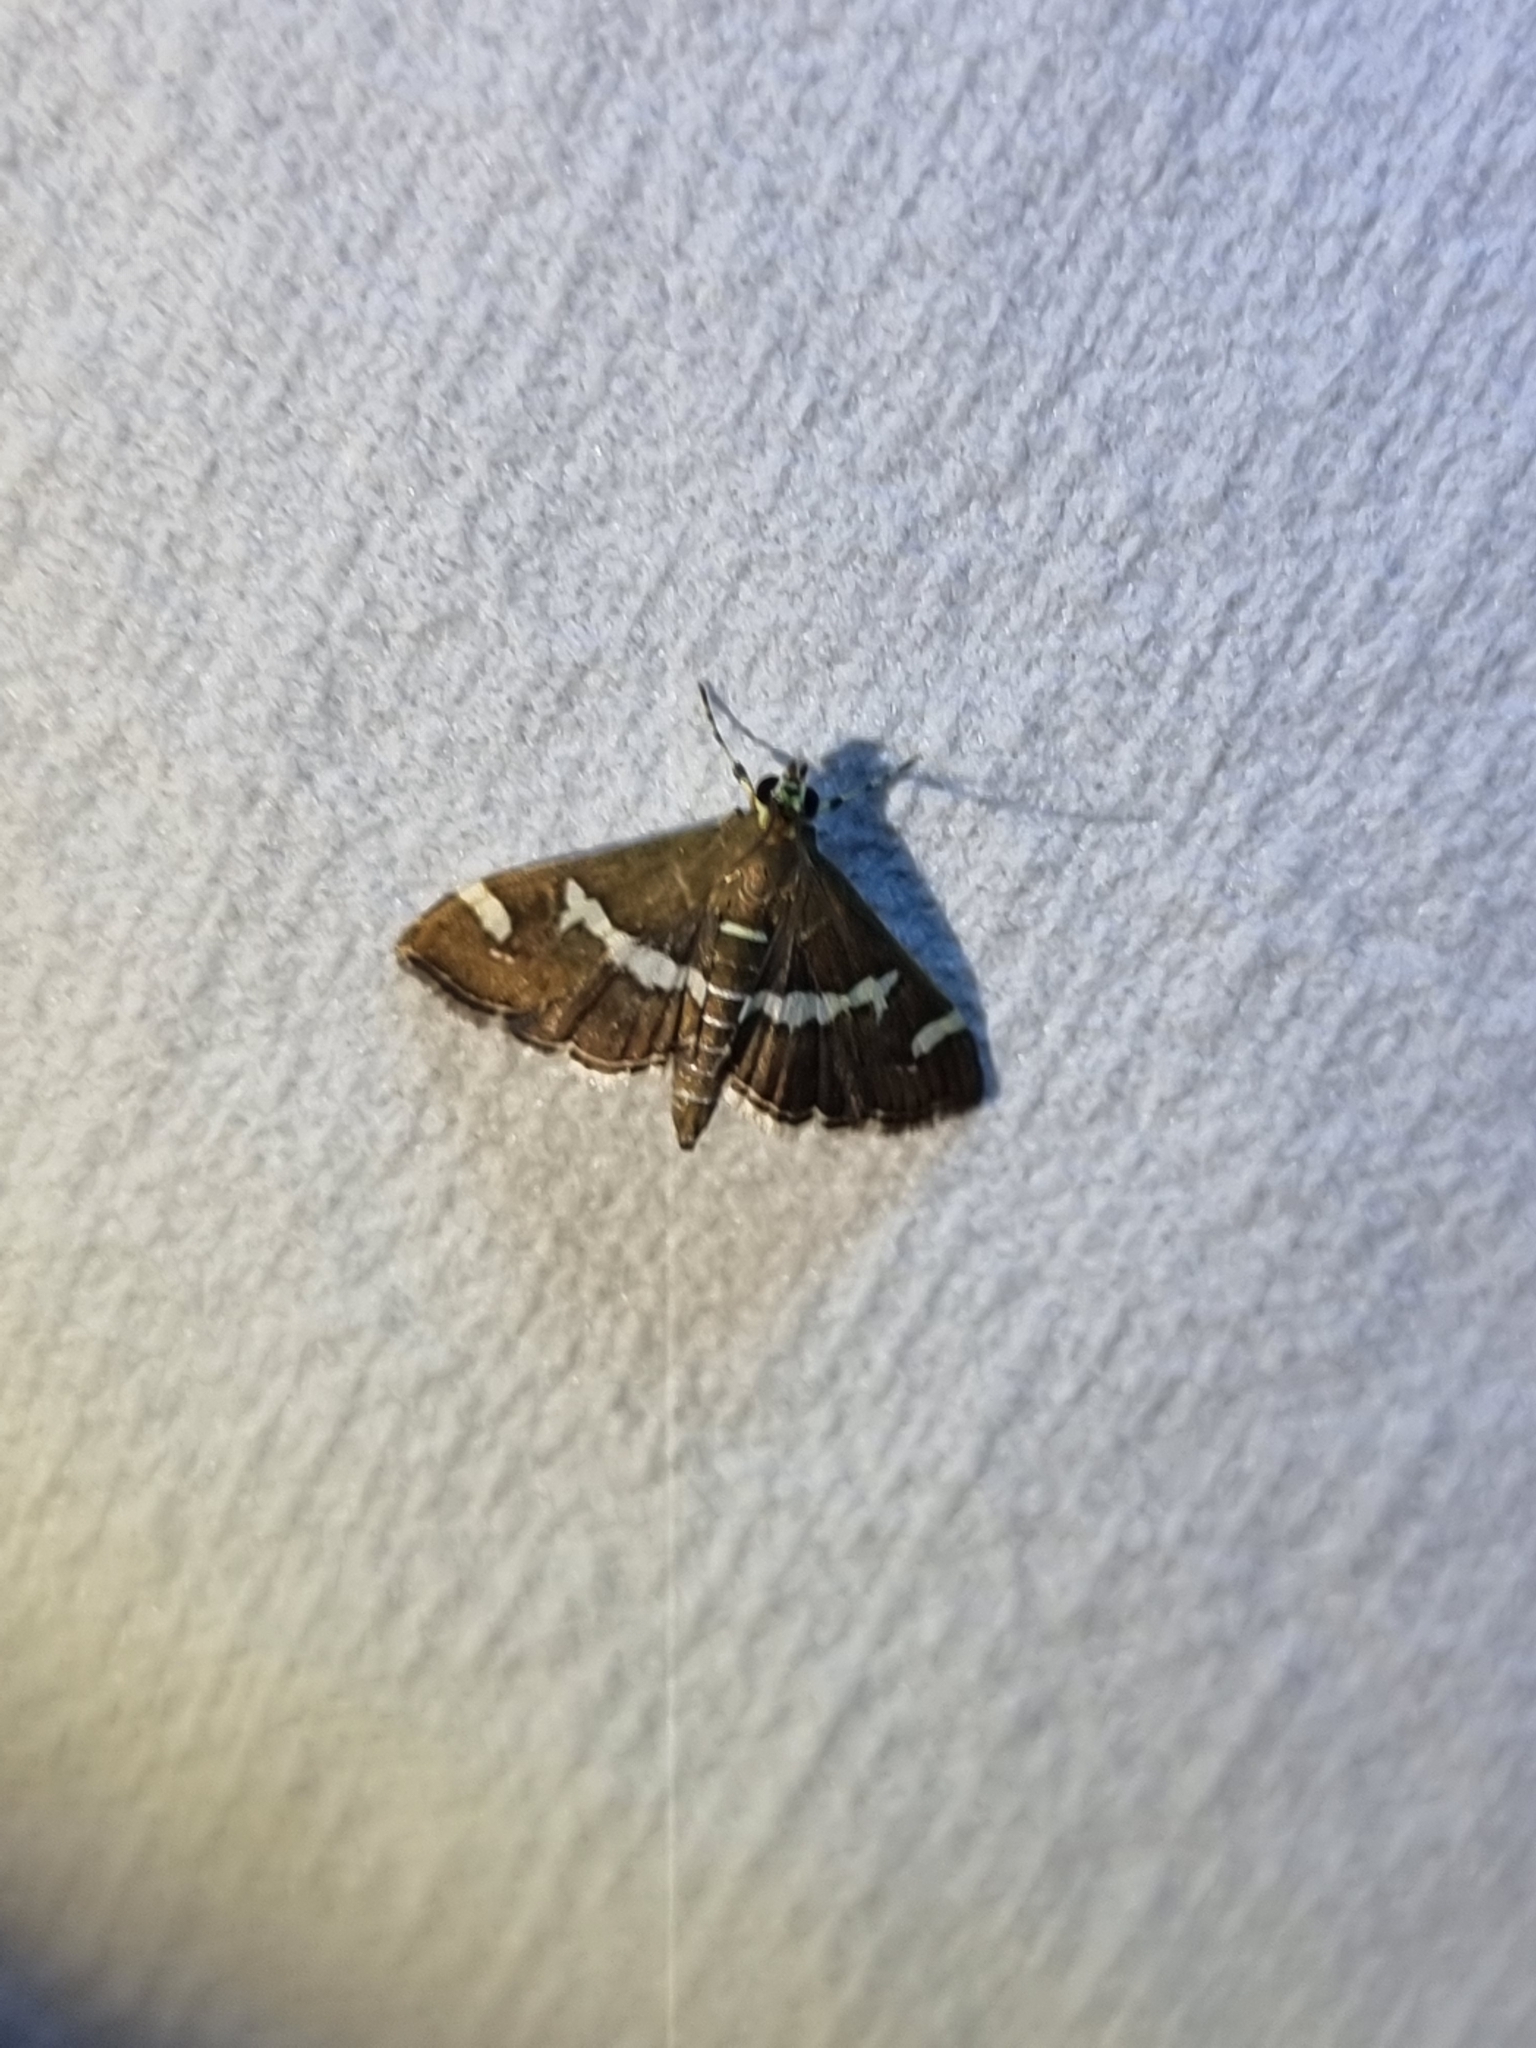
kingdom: Animalia
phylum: Arthropoda
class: Insecta
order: Lepidoptera
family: Crambidae
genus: Spoladea
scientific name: Spoladea recurvalis
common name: Beet webworm moth
